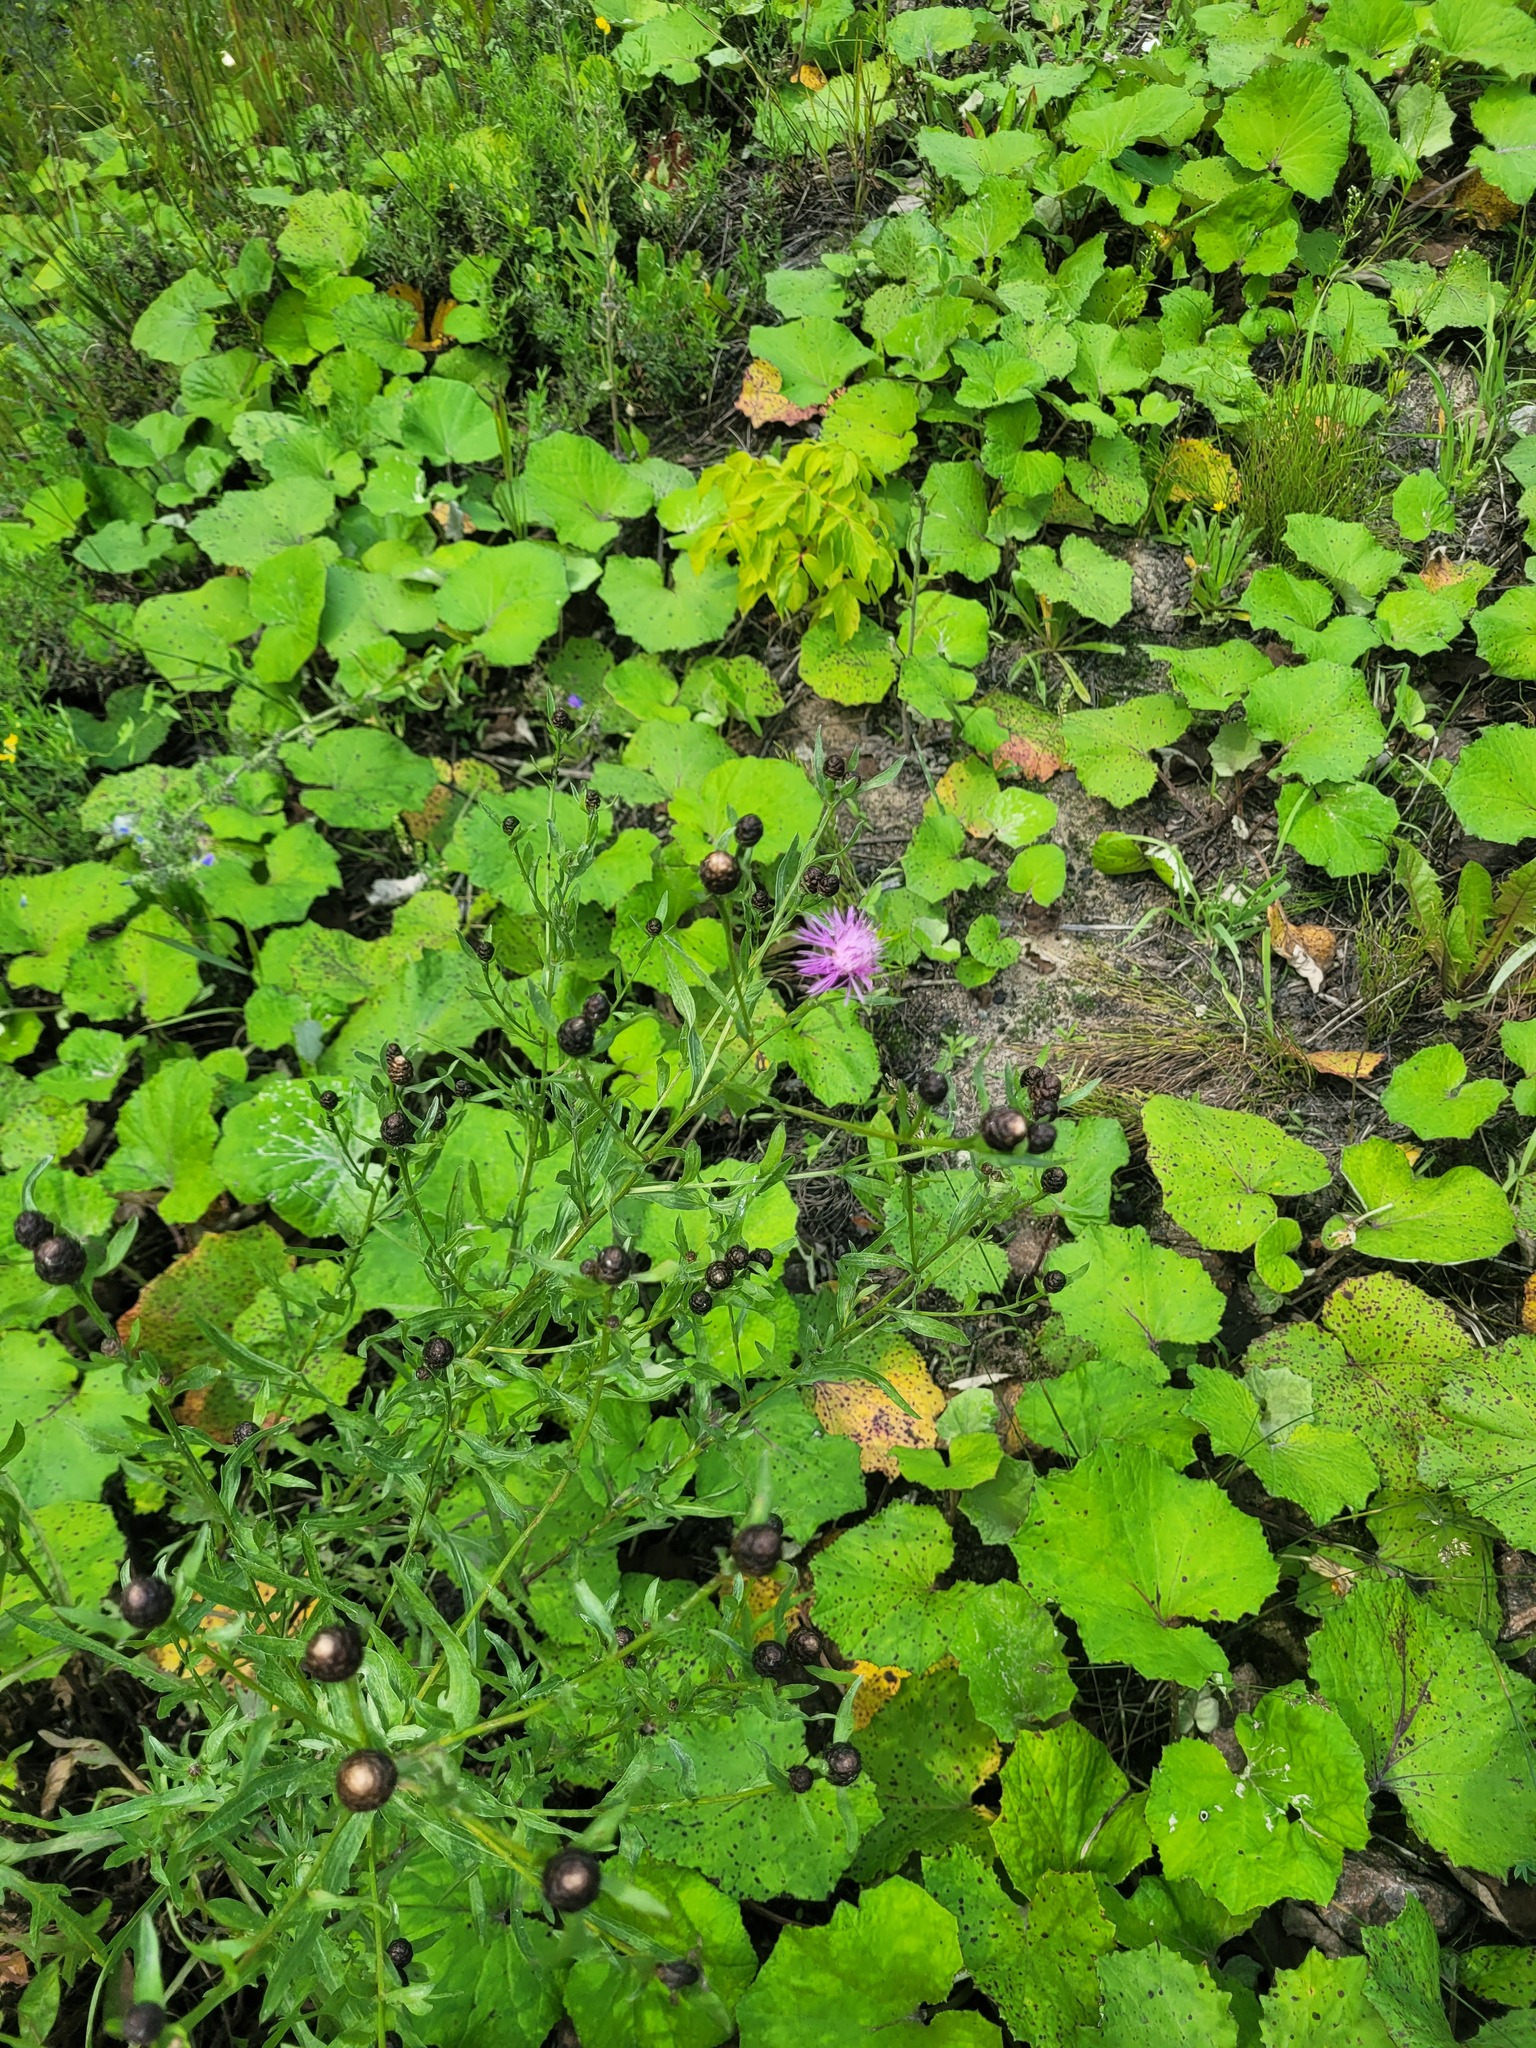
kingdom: Plantae
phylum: Tracheophyta
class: Magnoliopsida
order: Asterales
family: Asteraceae
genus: Centaurea
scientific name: Centaurea jacea
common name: Brown knapweed
